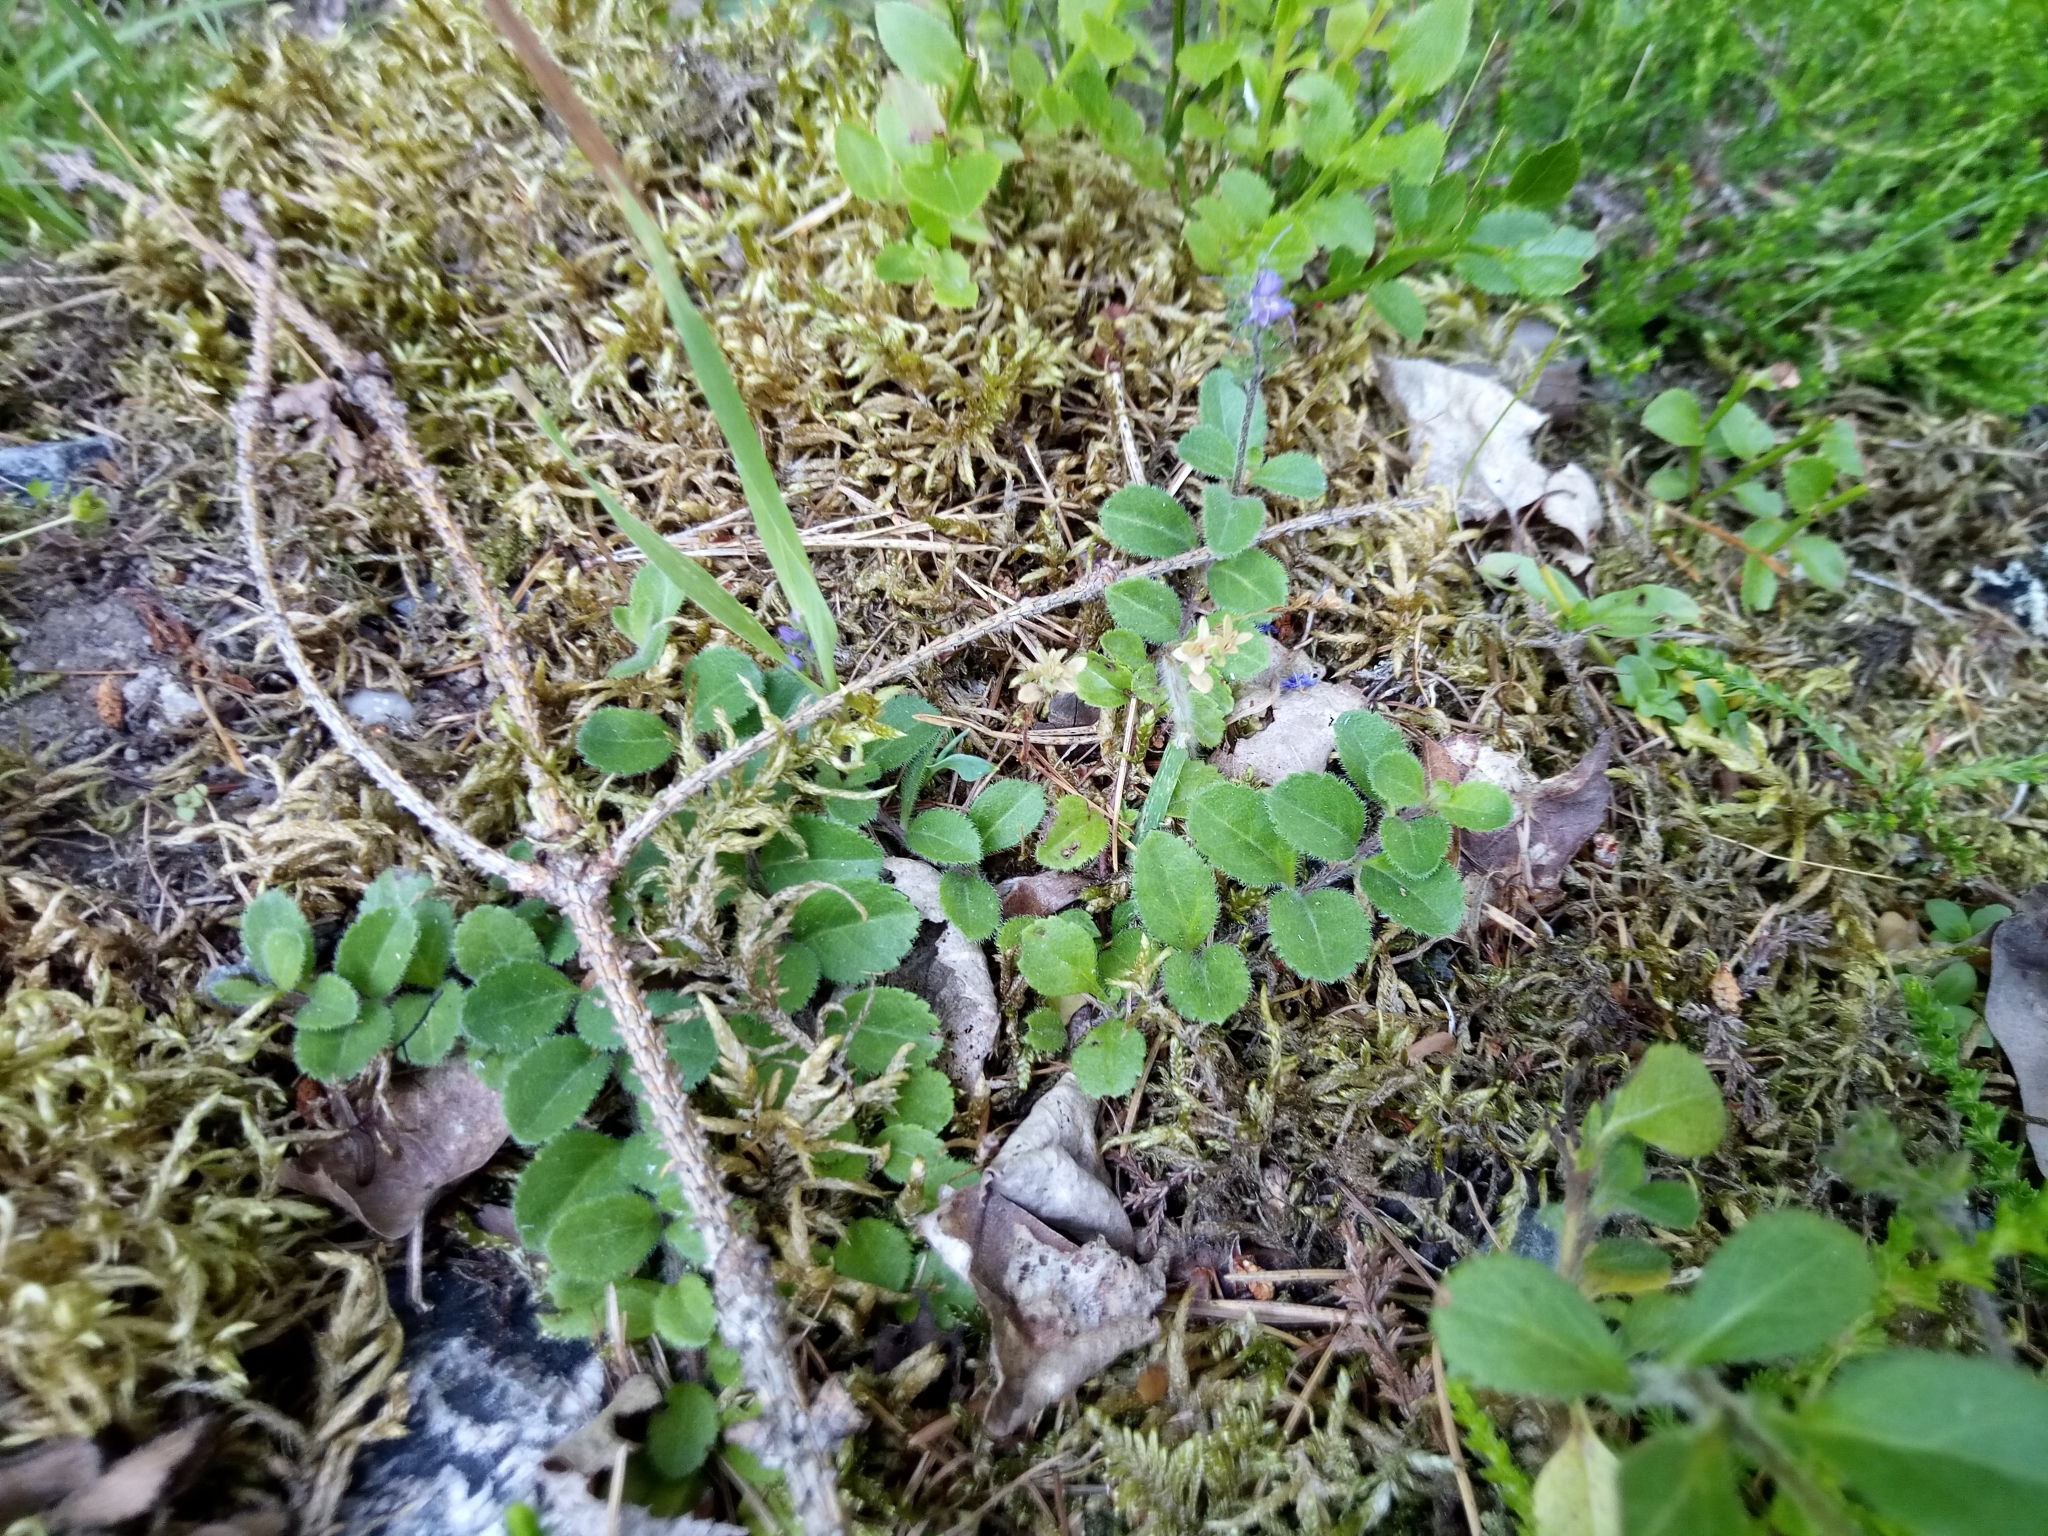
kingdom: Plantae
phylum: Tracheophyta
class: Magnoliopsida
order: Lamiales
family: Plantaginaceae
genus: Veronica
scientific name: Veronica officinalis
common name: Common speedwell
